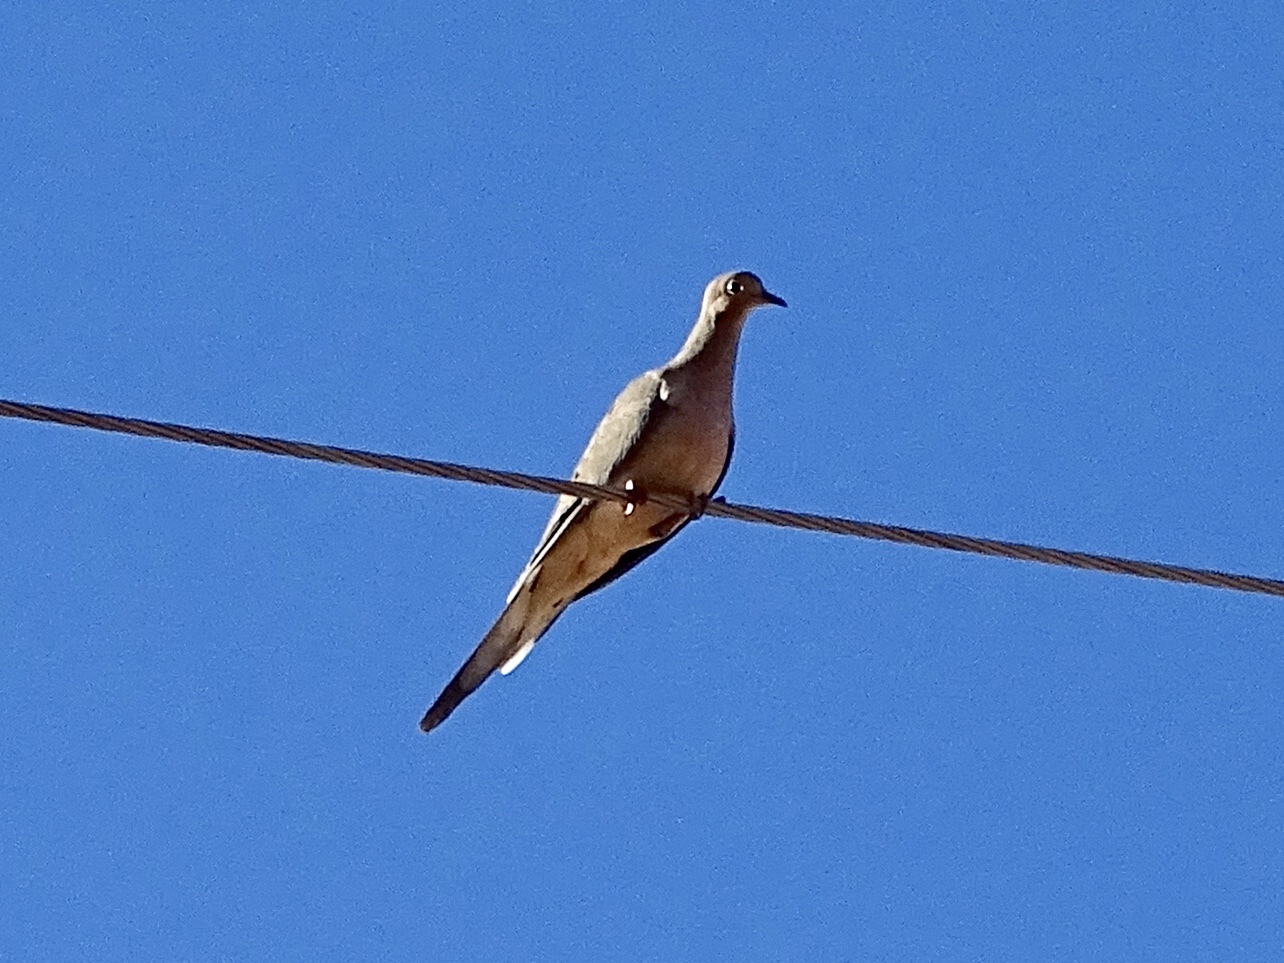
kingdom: Animalia
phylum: Chordata
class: Aves
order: Columbiformes
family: Columbidae
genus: Zenaida
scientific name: Zenaida macroura
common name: Mourning dove
